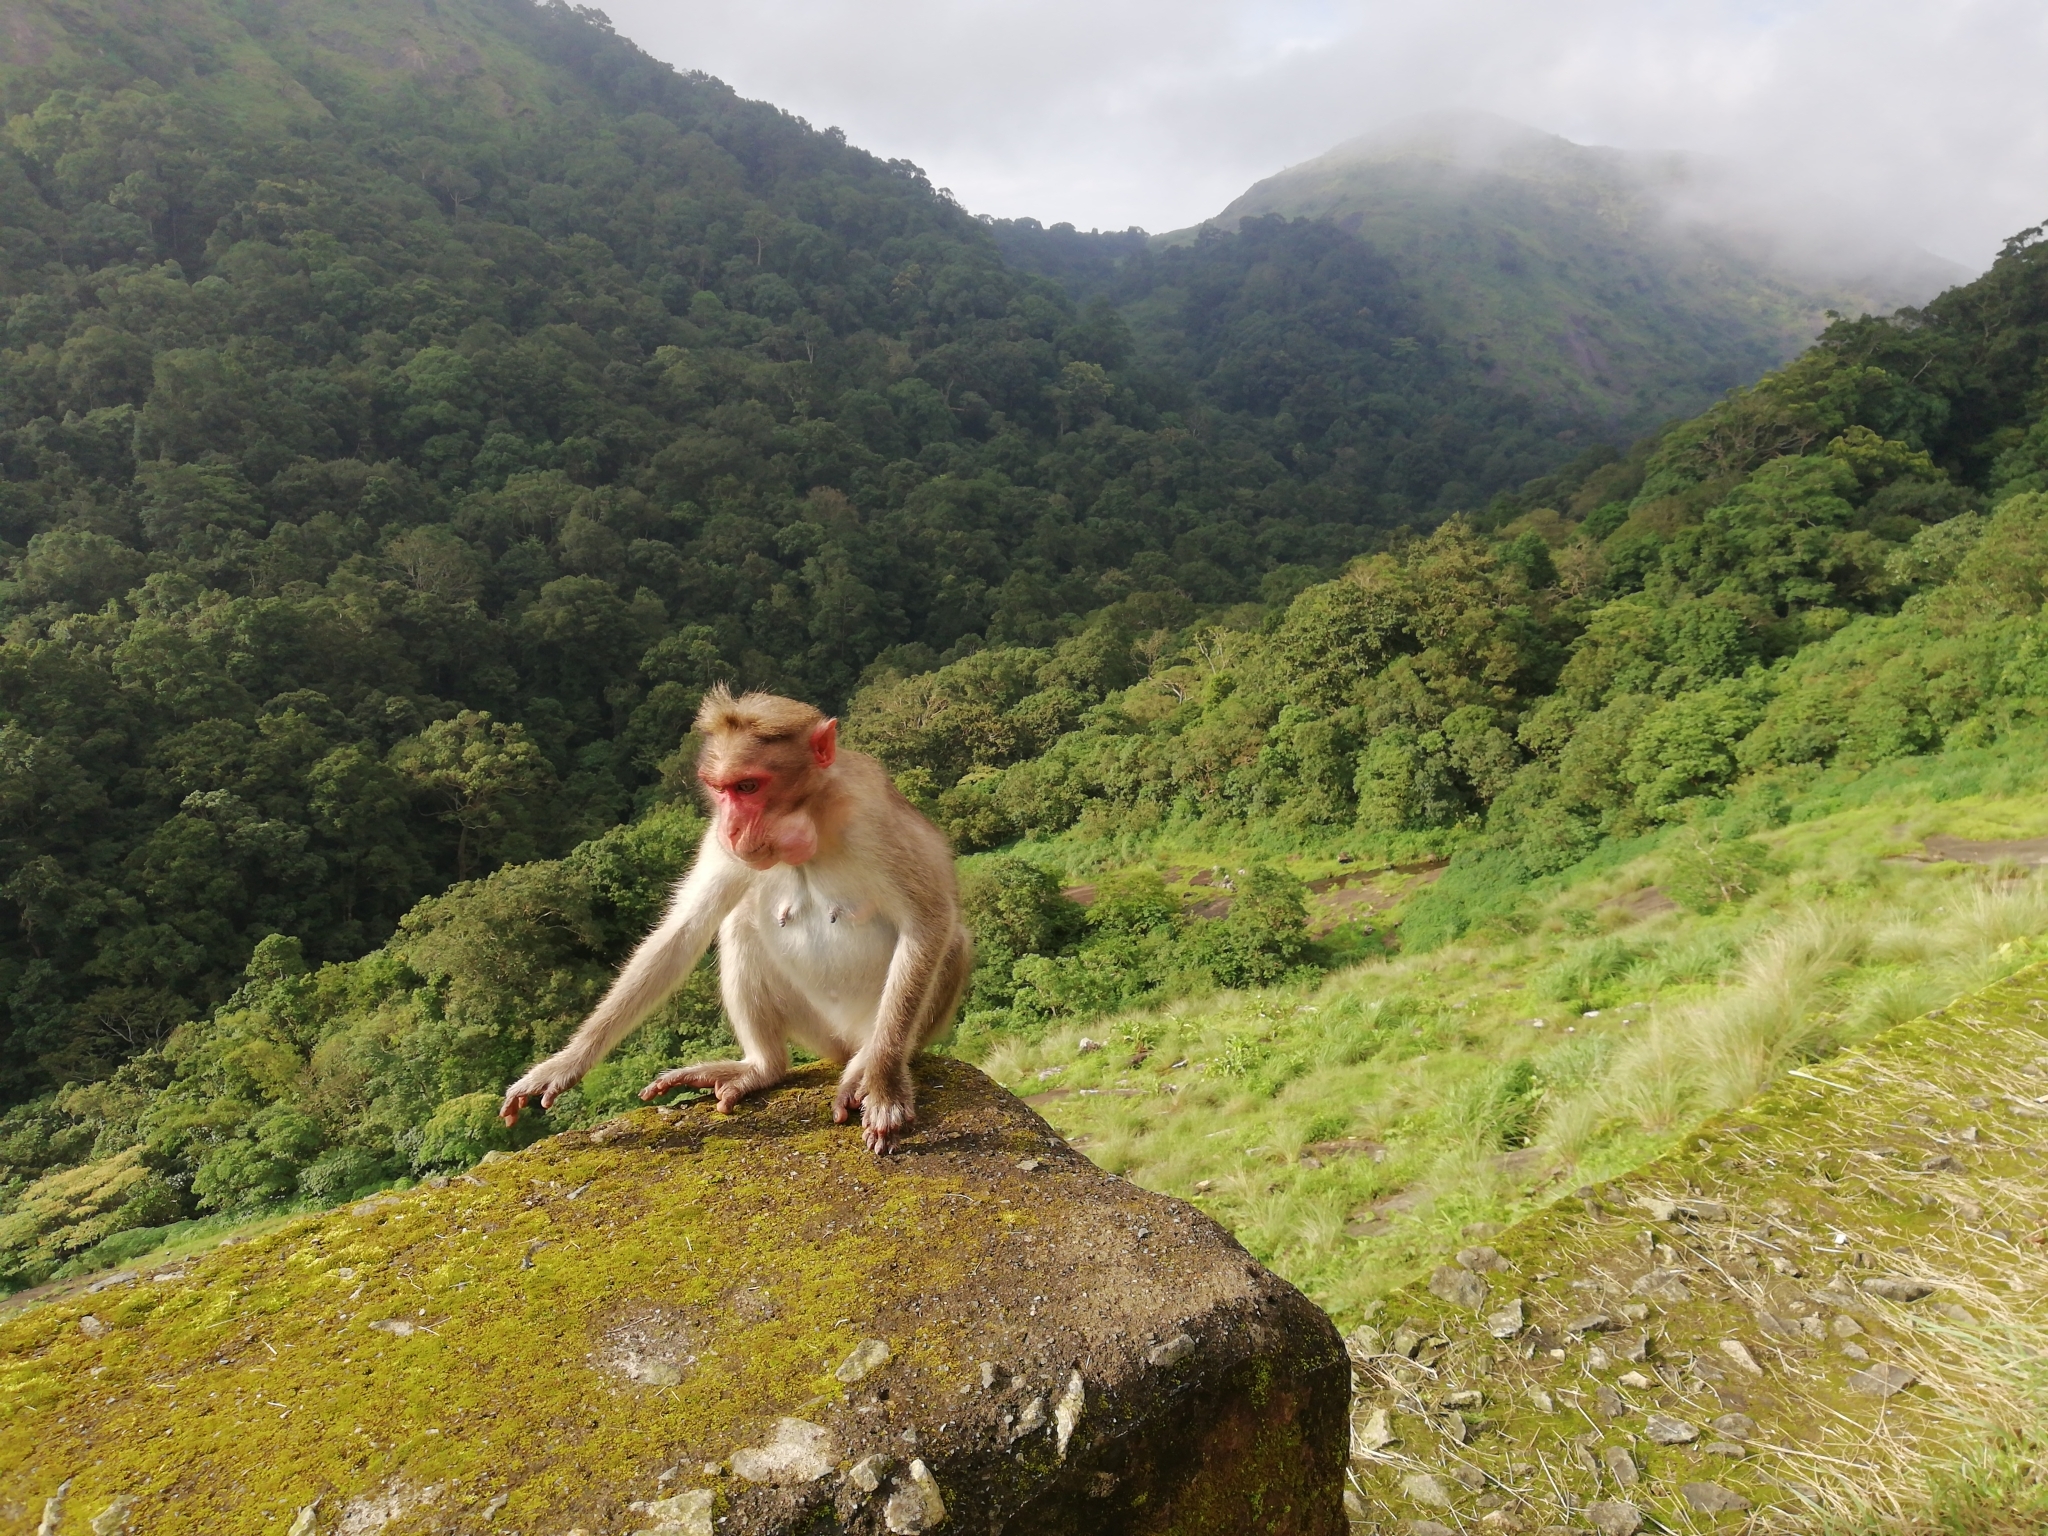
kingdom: Animalia
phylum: Chordata
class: Mammalia
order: Primates
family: Cercopithecidae
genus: Macaca
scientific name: Macaca radiata
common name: Bonnet macaque
